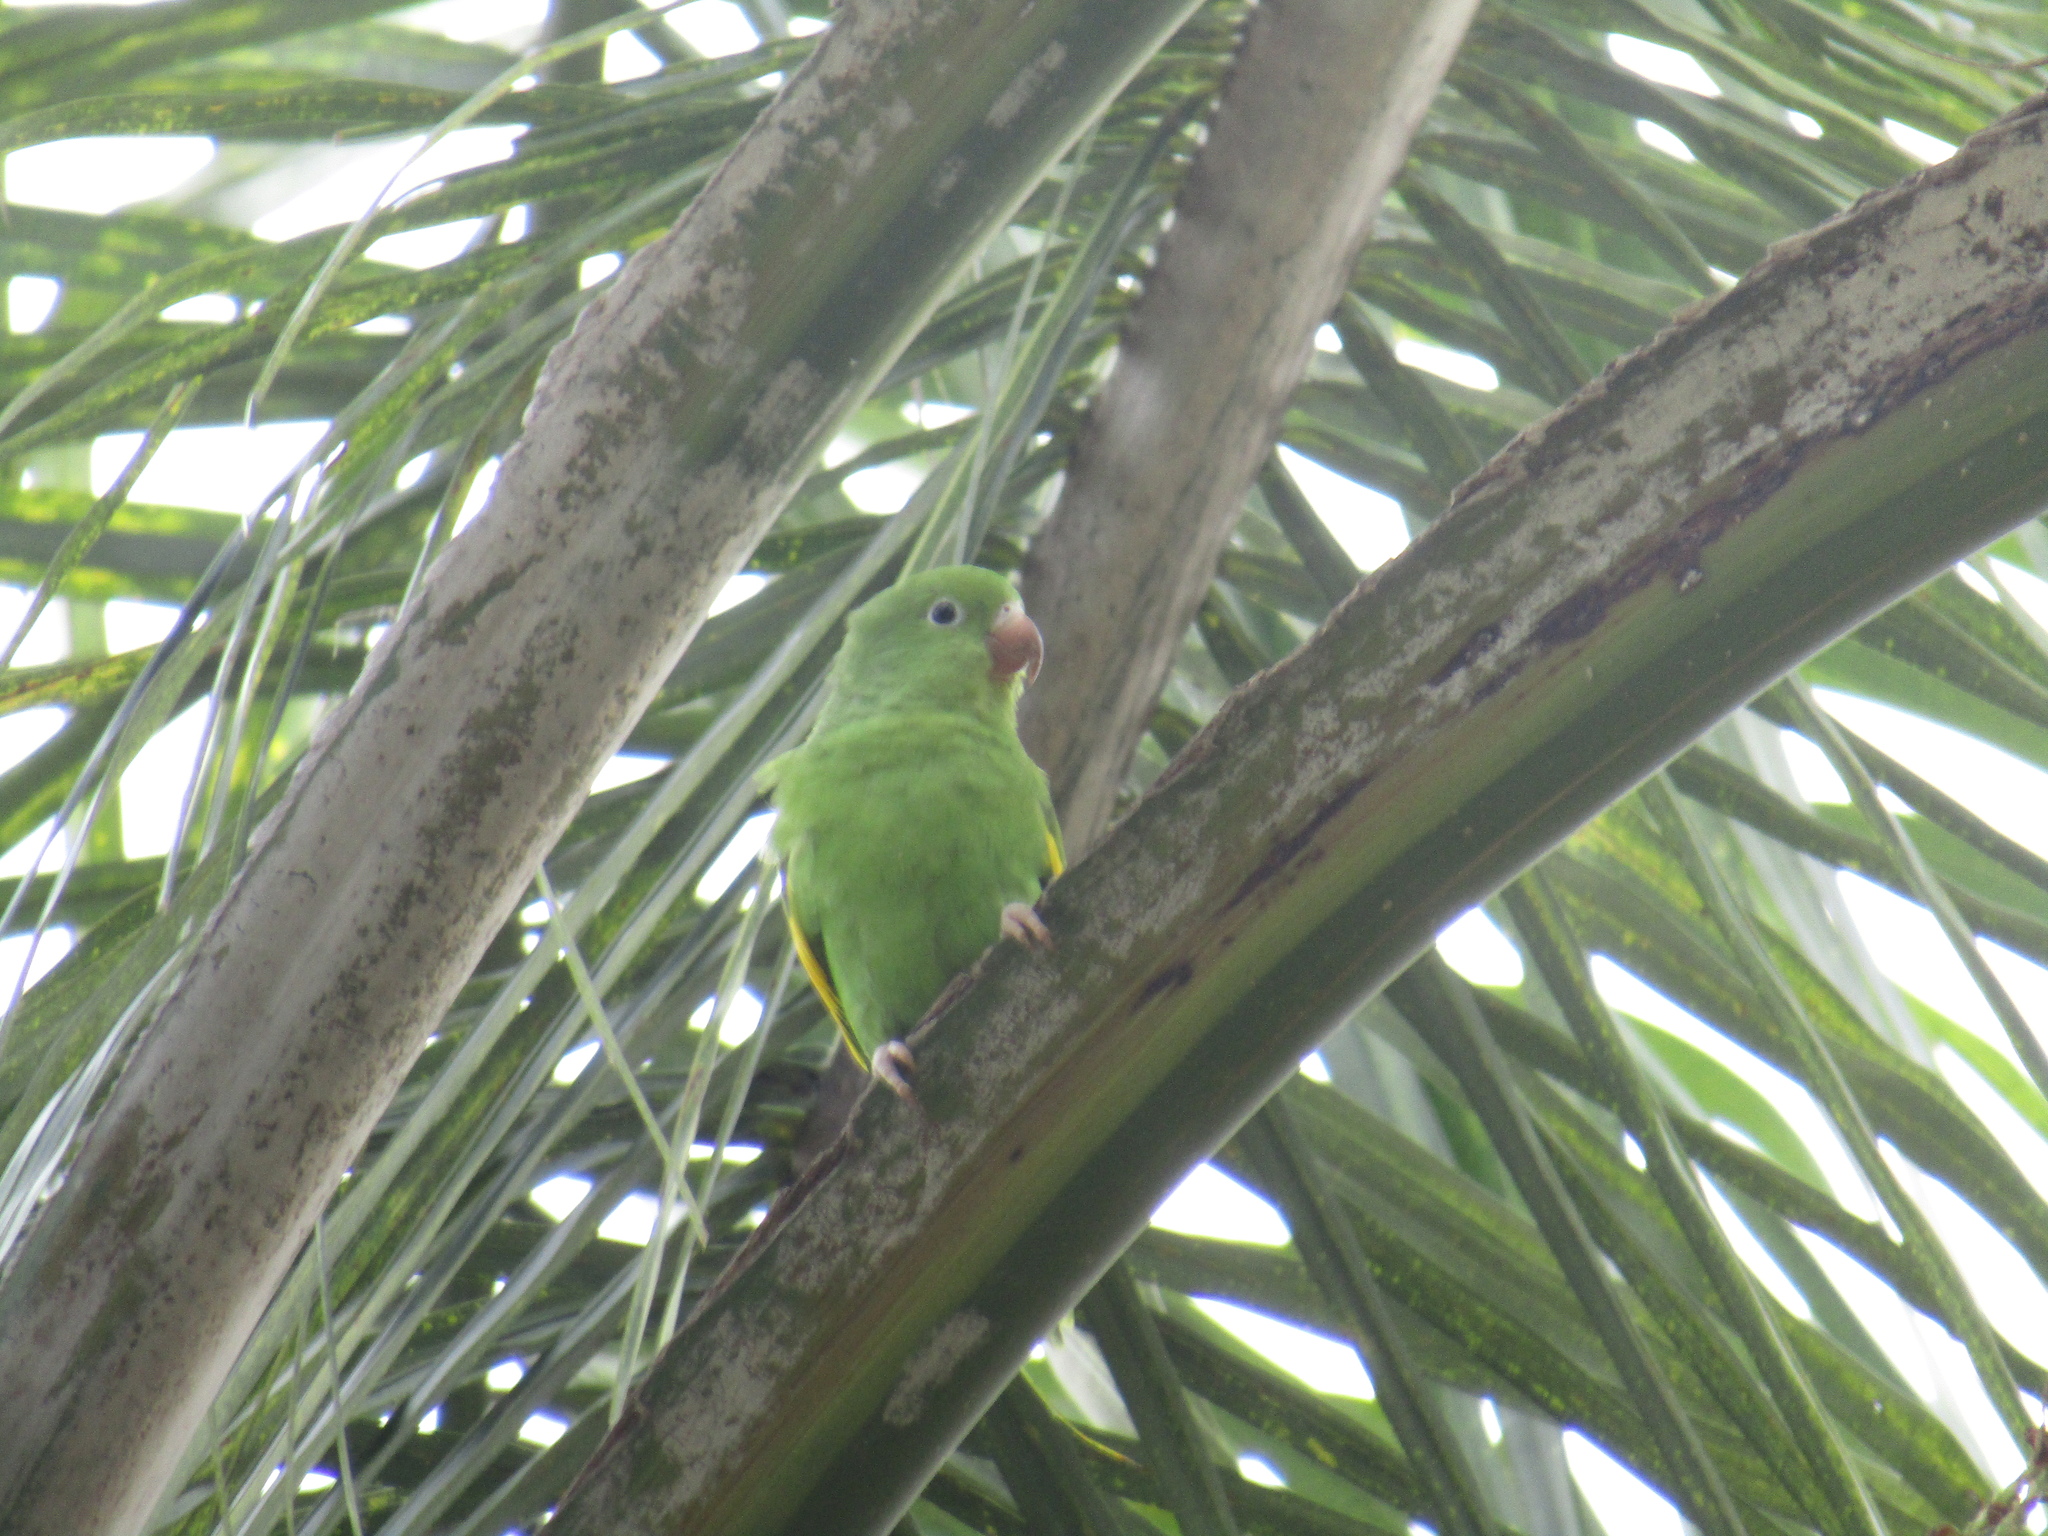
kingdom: Animalia
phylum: Chordata
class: Aves
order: Psittaciformes
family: Psittacidae
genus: Brotogeris
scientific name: Brotogeris chiriri
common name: Yellow-chevroned parakeet
